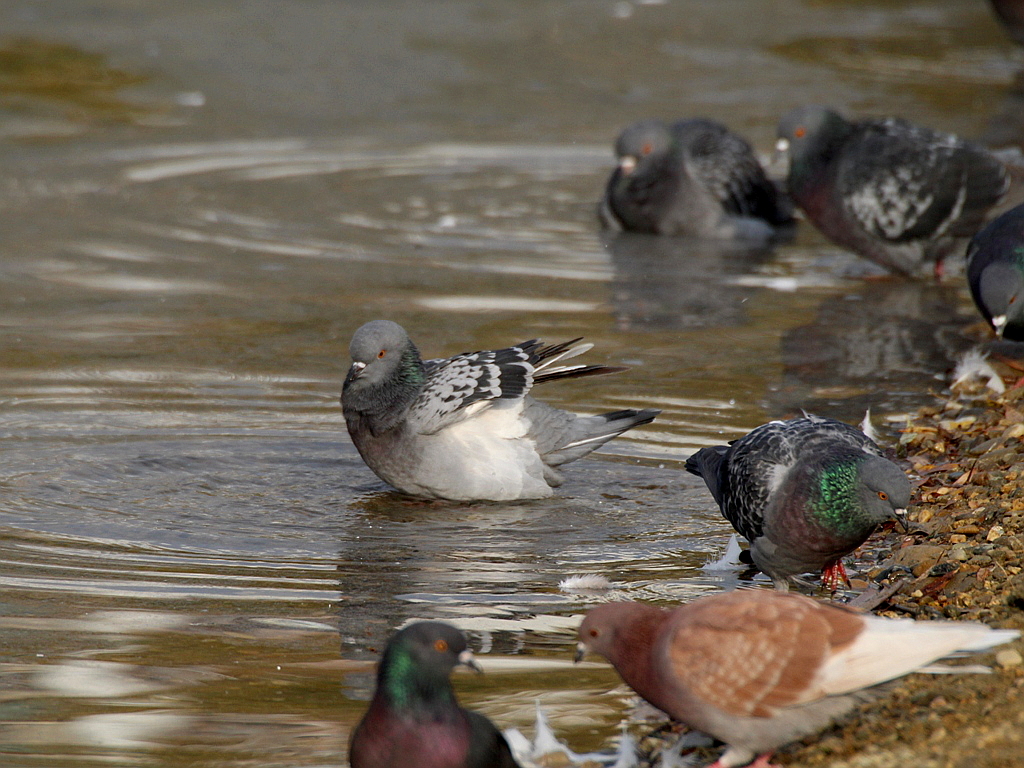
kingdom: Animalia
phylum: Chordata
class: Aves
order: Columbiformes
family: Columbidae
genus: Columba
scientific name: Columba livia
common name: Rock pigeon
